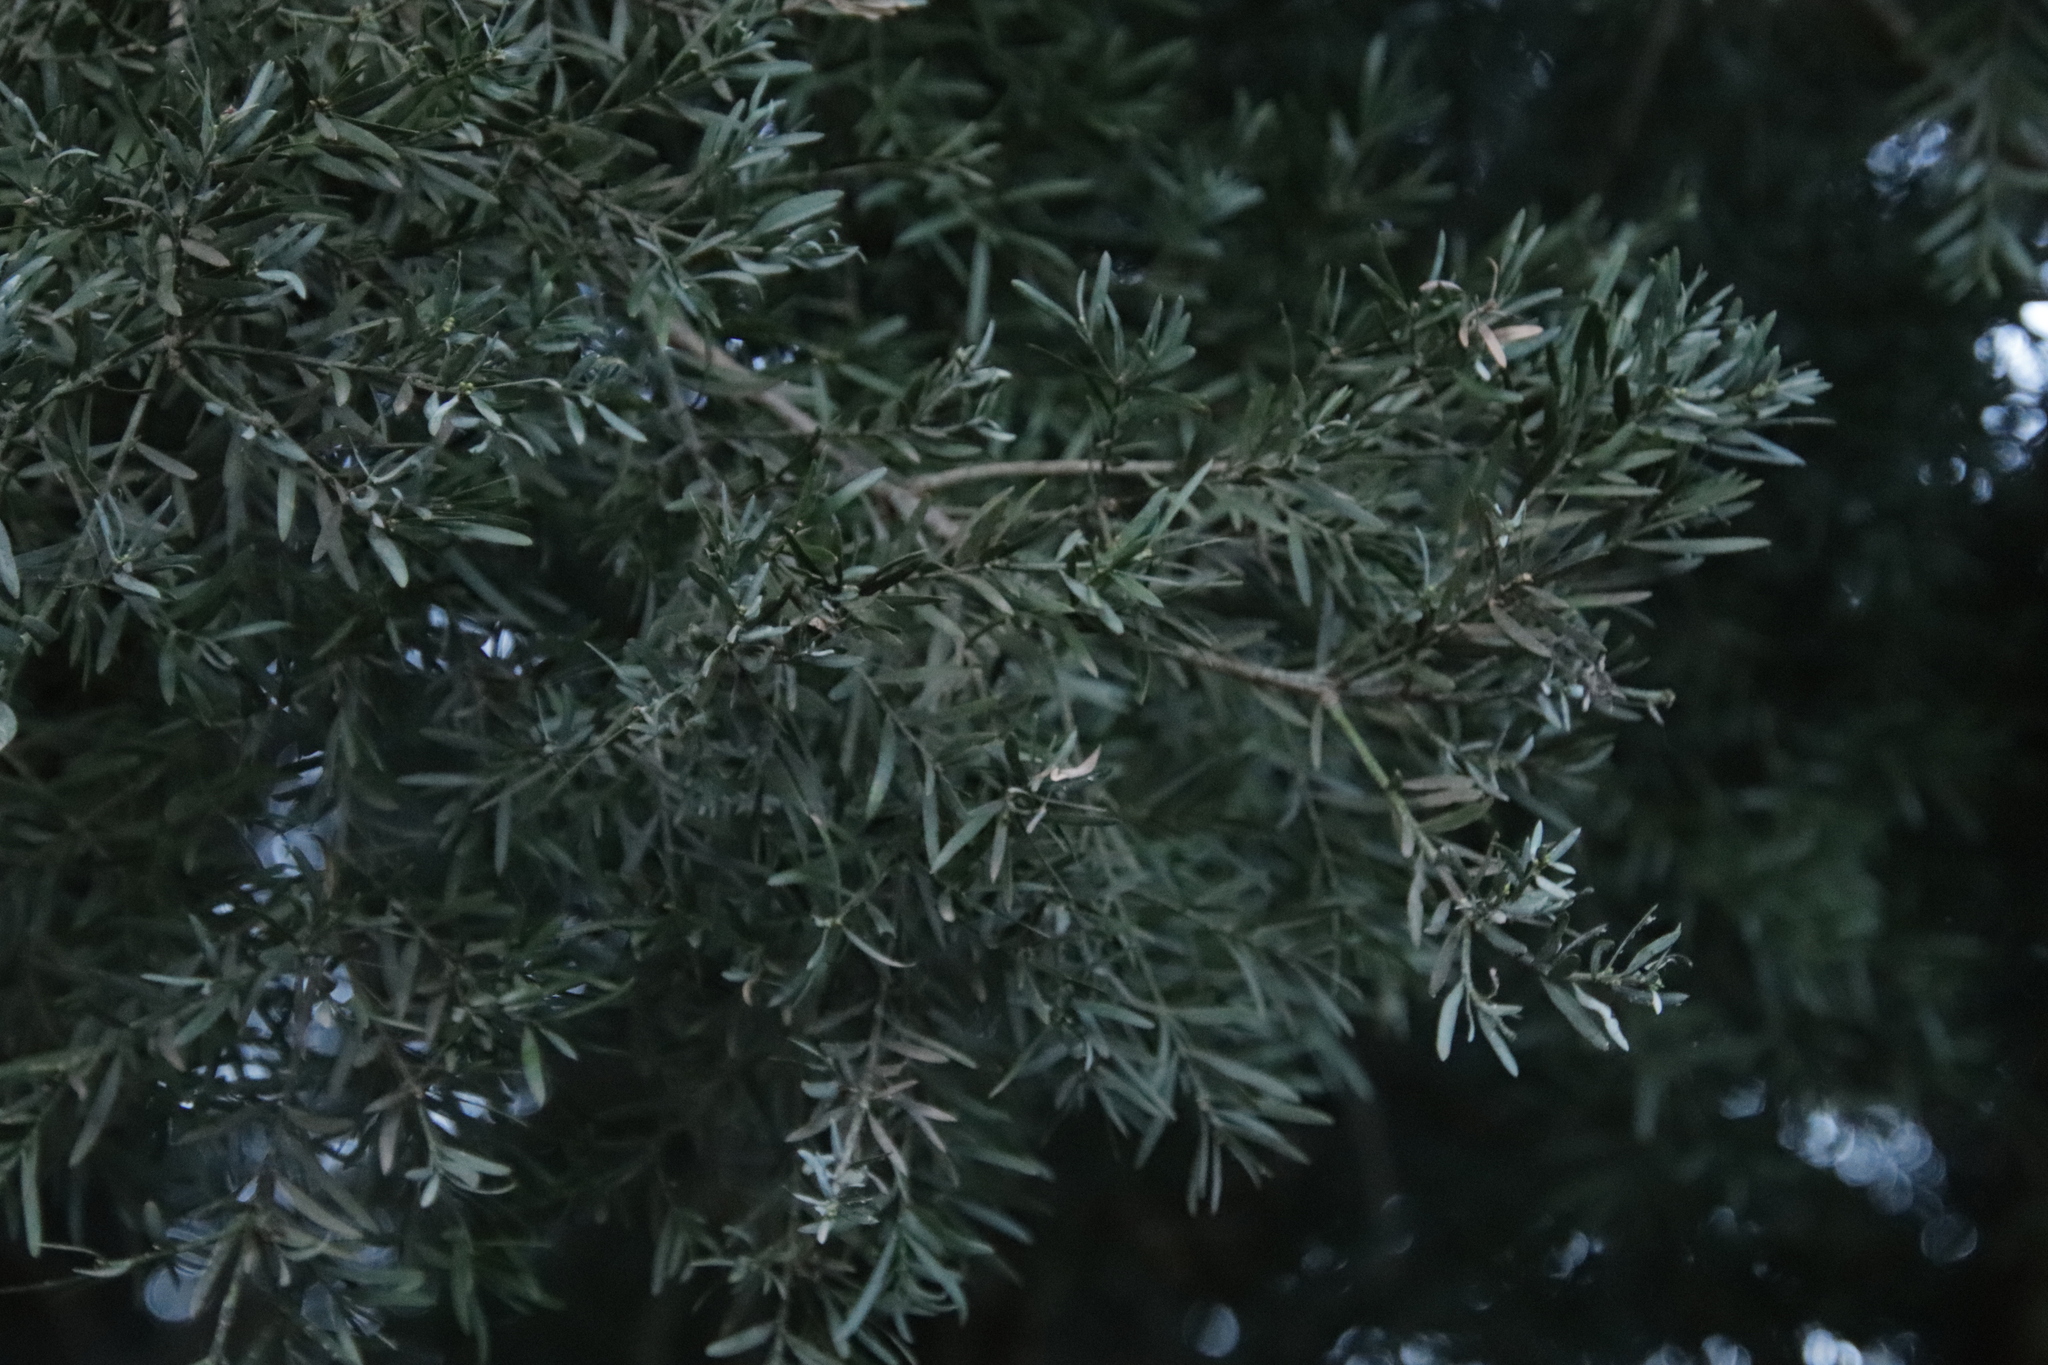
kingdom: Plantae
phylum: Tracheophyta
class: Pinopsida
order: Pinales
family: Podocarpaceae
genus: Afrocarpus
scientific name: Afrocarpus falcatus
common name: Bastard yellowwood
